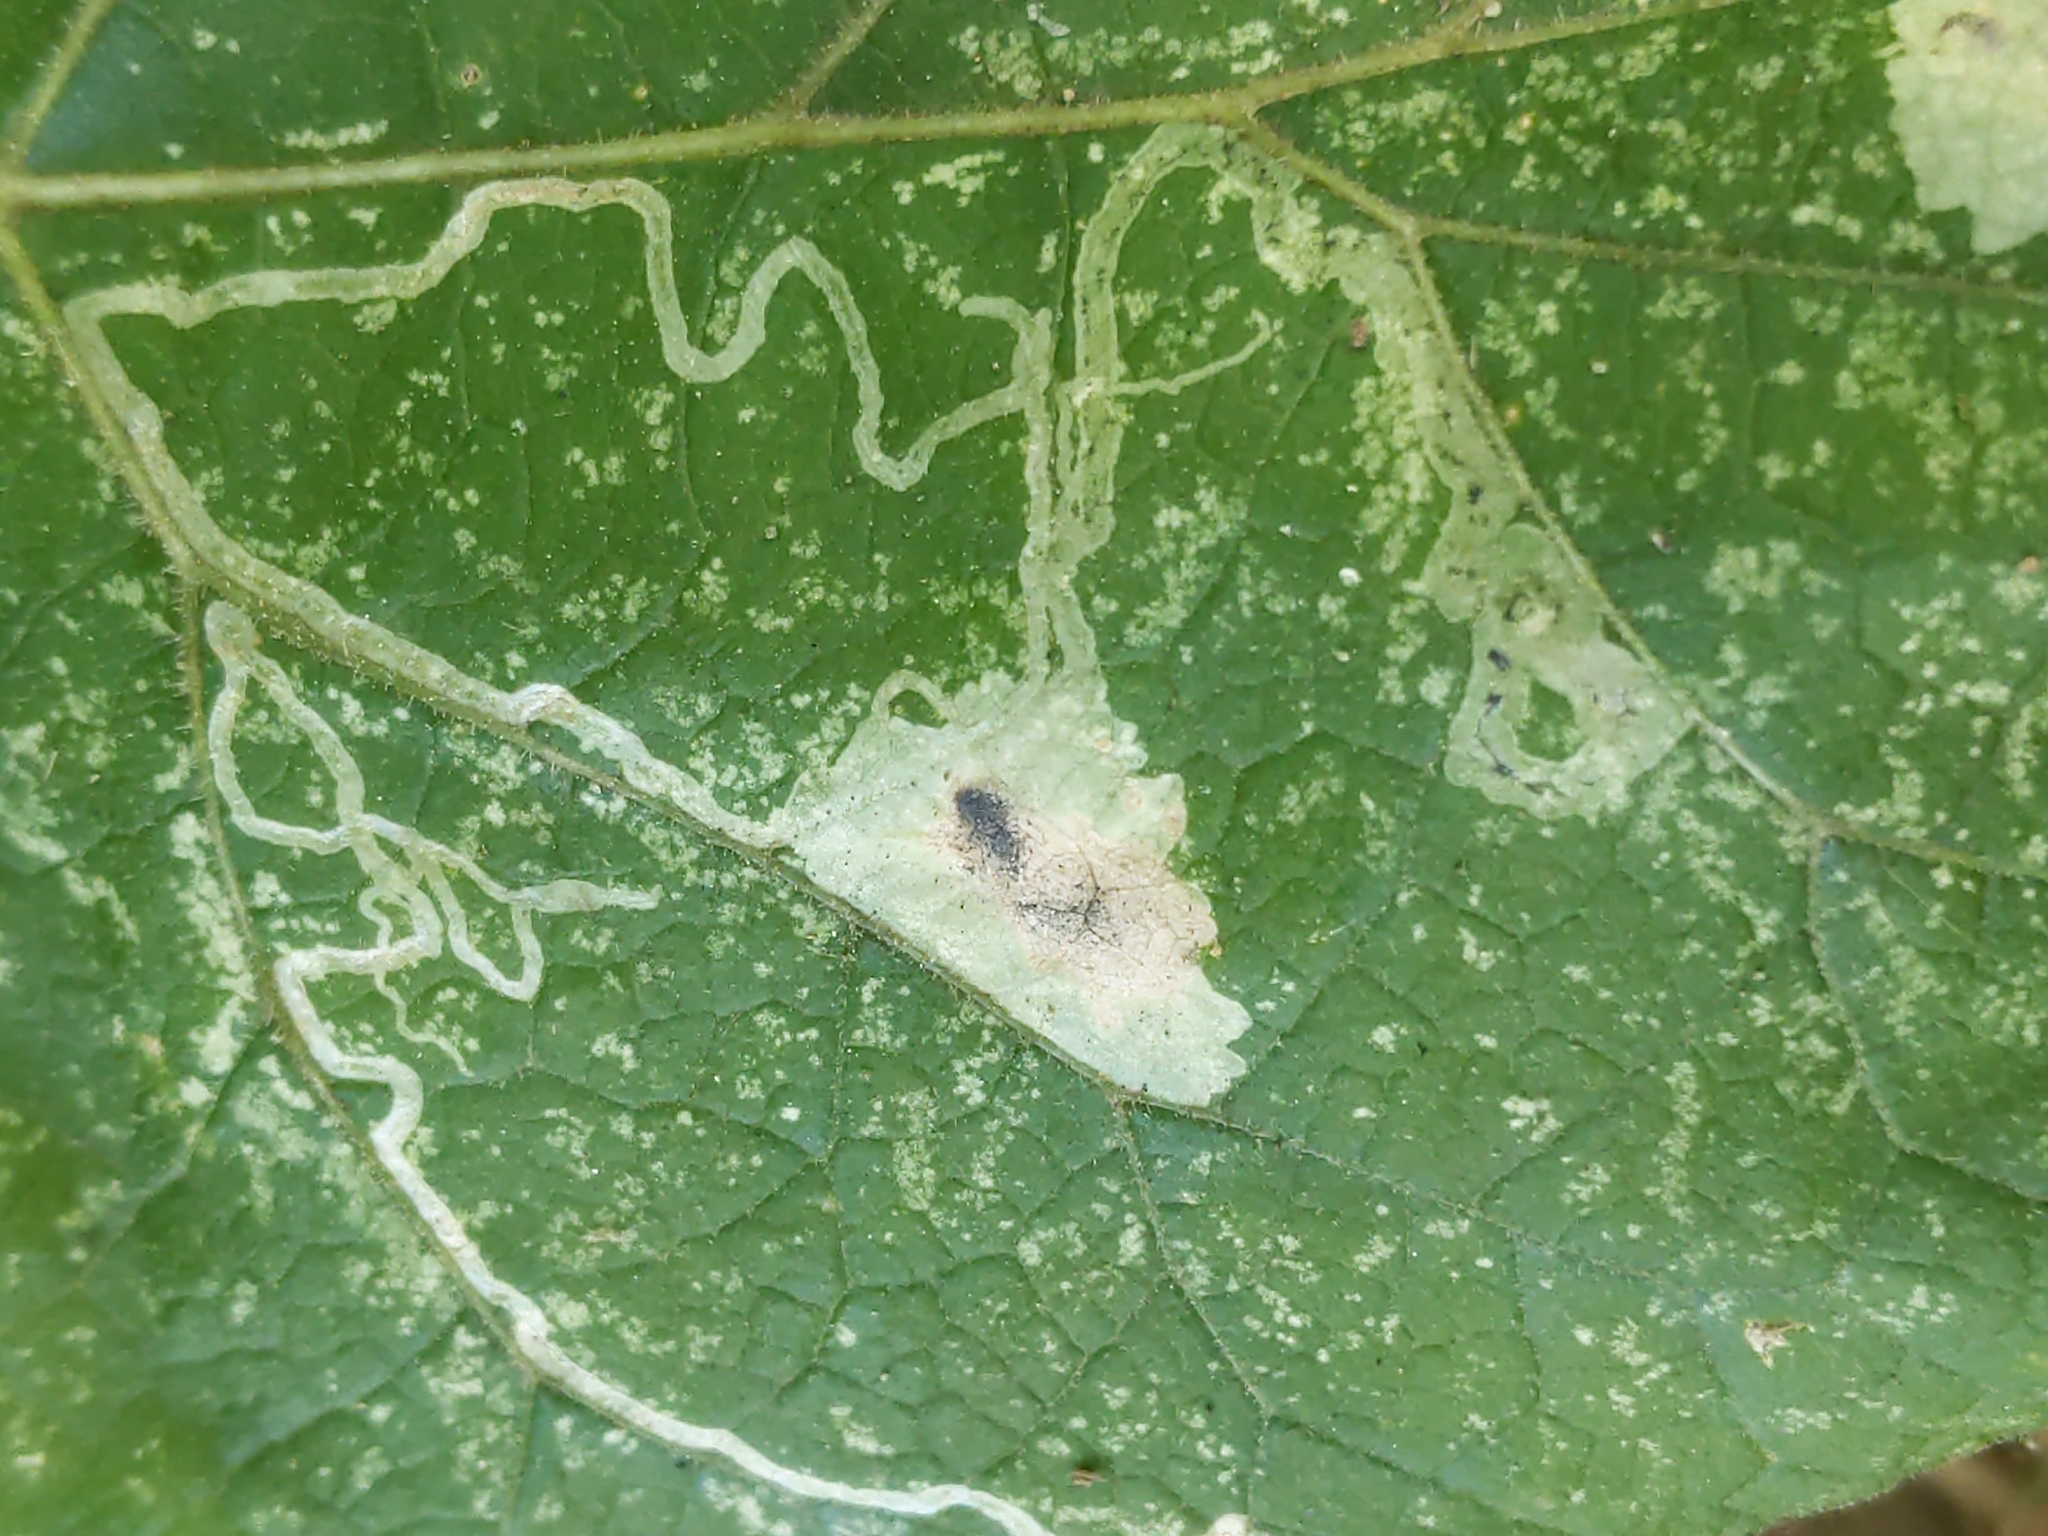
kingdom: Animalia
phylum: Arthropoda
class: Insecta
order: Diptera
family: Agromyzidae
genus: Calycomyza
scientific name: Calycomyza flavinotum
